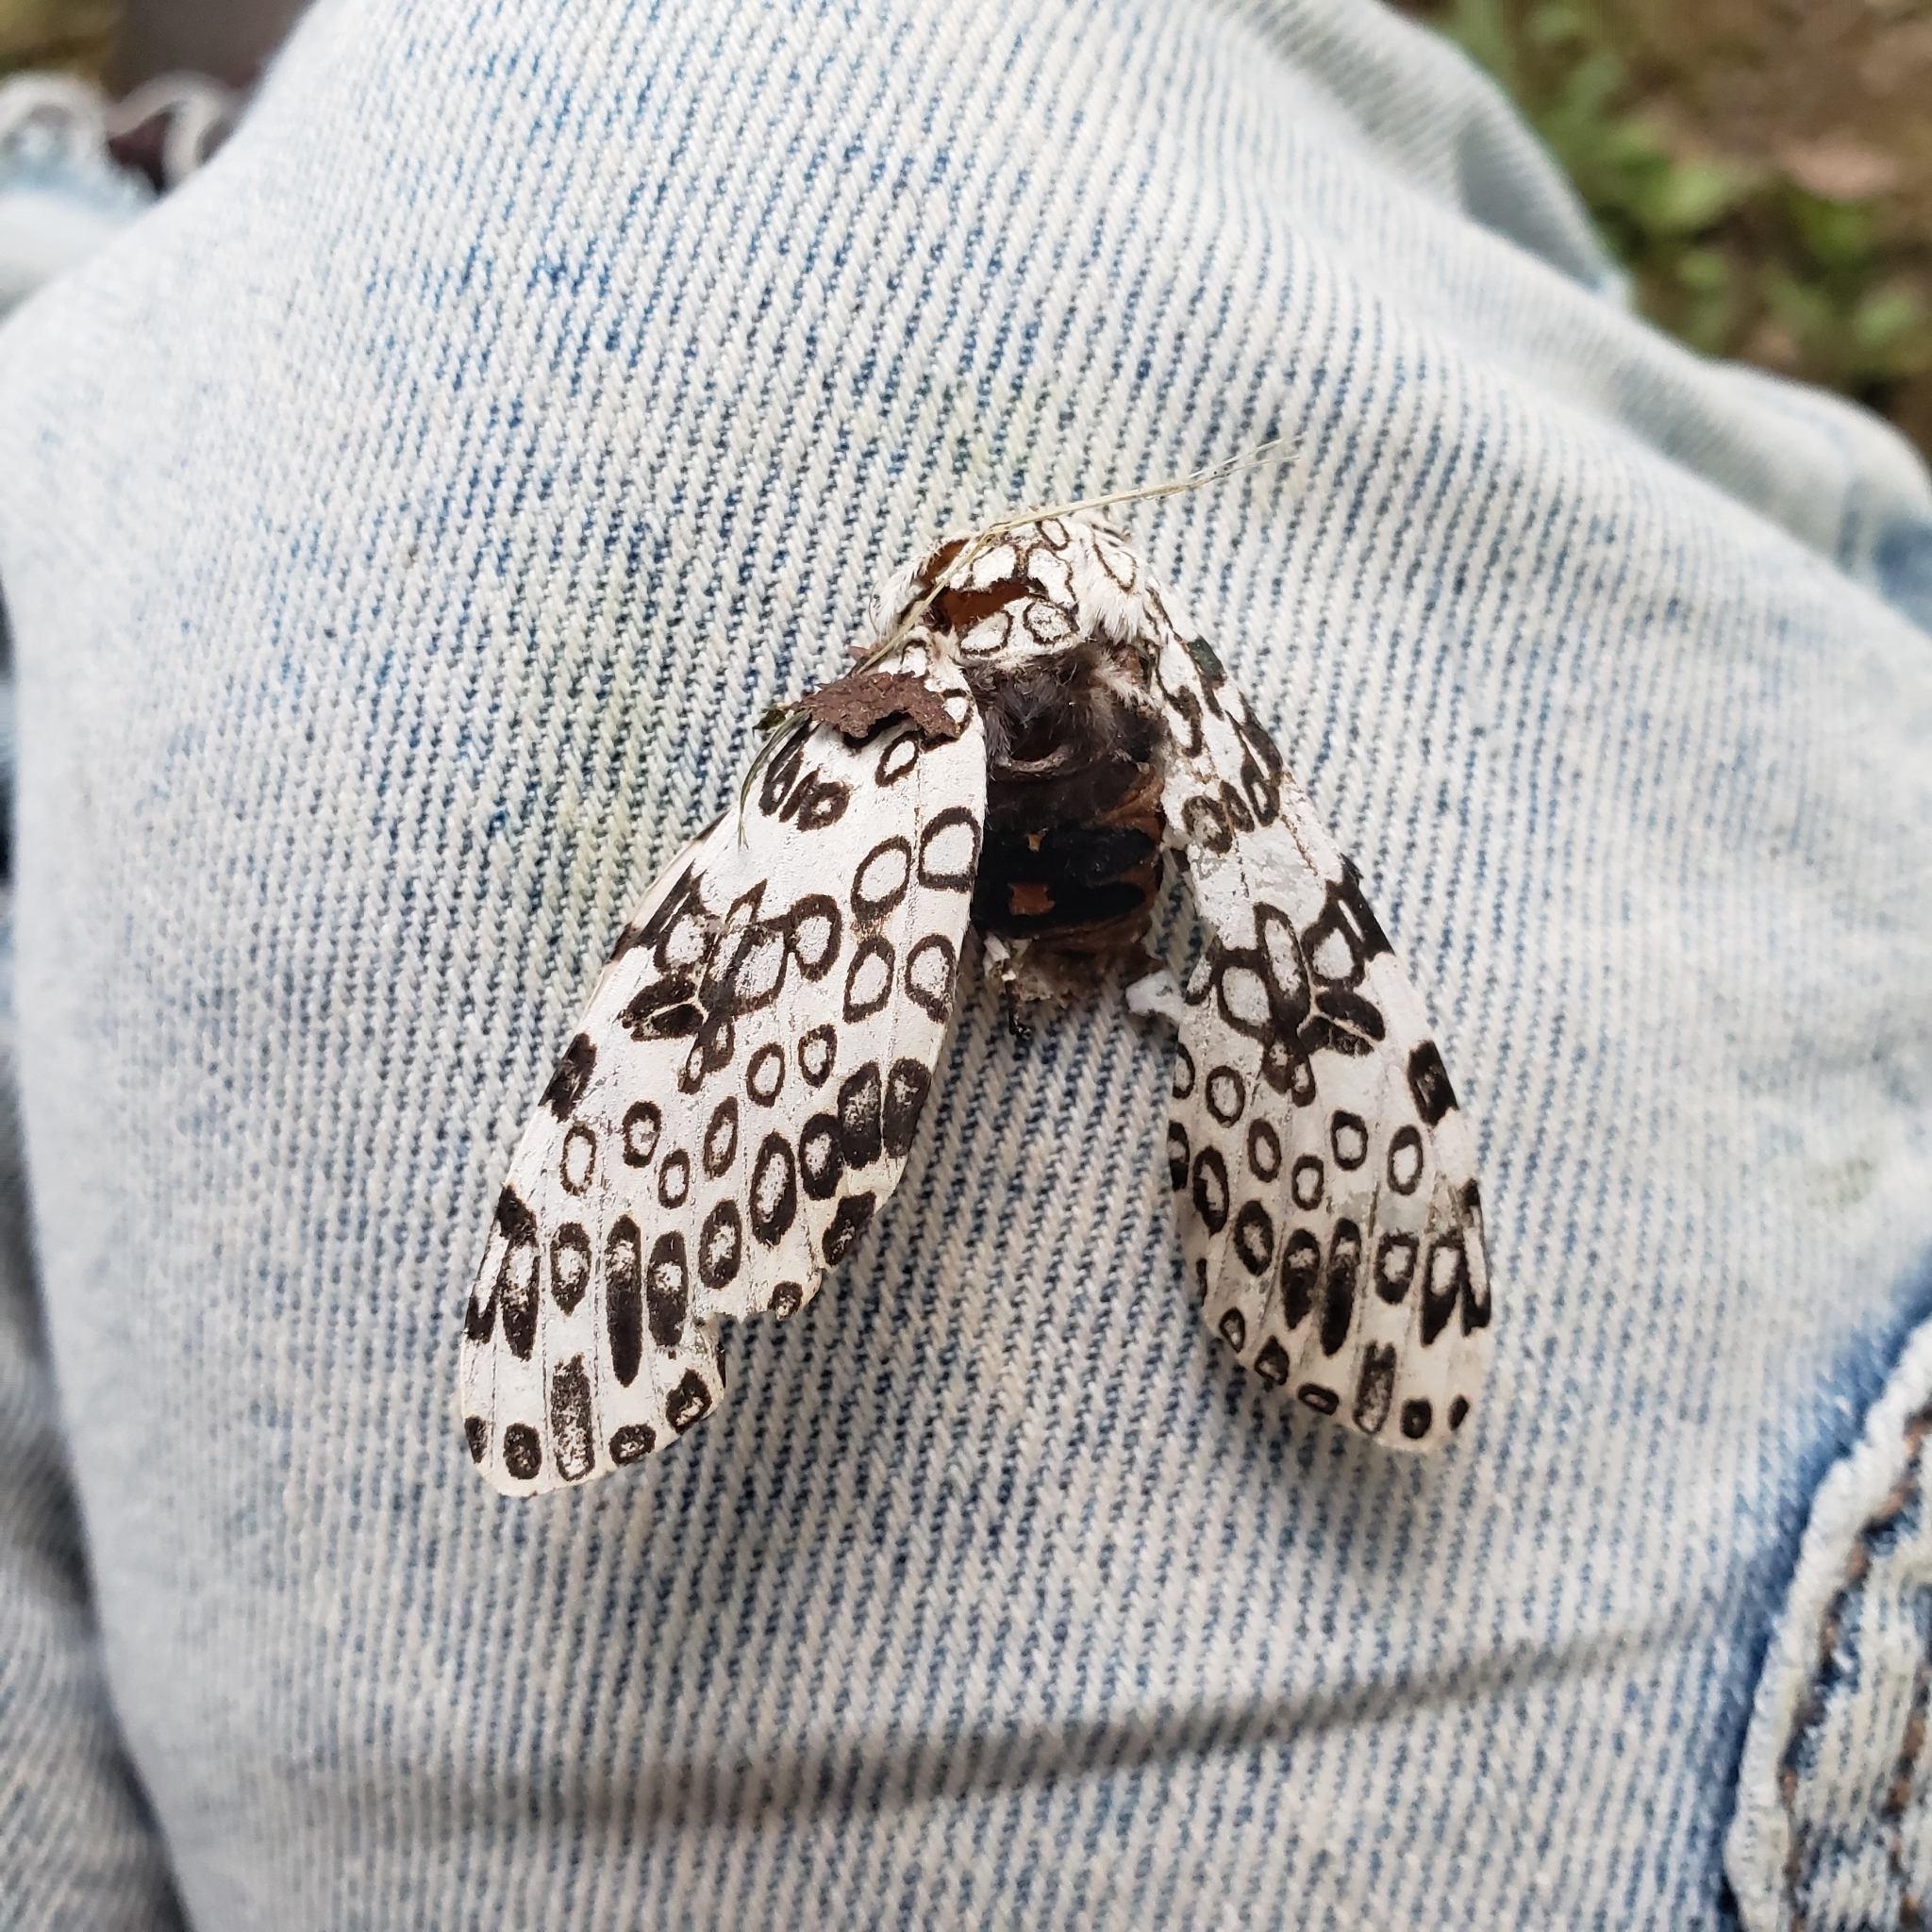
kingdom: Animalia
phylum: Arthropoda
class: Insecta
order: Lepidoptera
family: Erebidae
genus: Hypercompe
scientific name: Hypercompe scribonia
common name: Giant leopard moth
